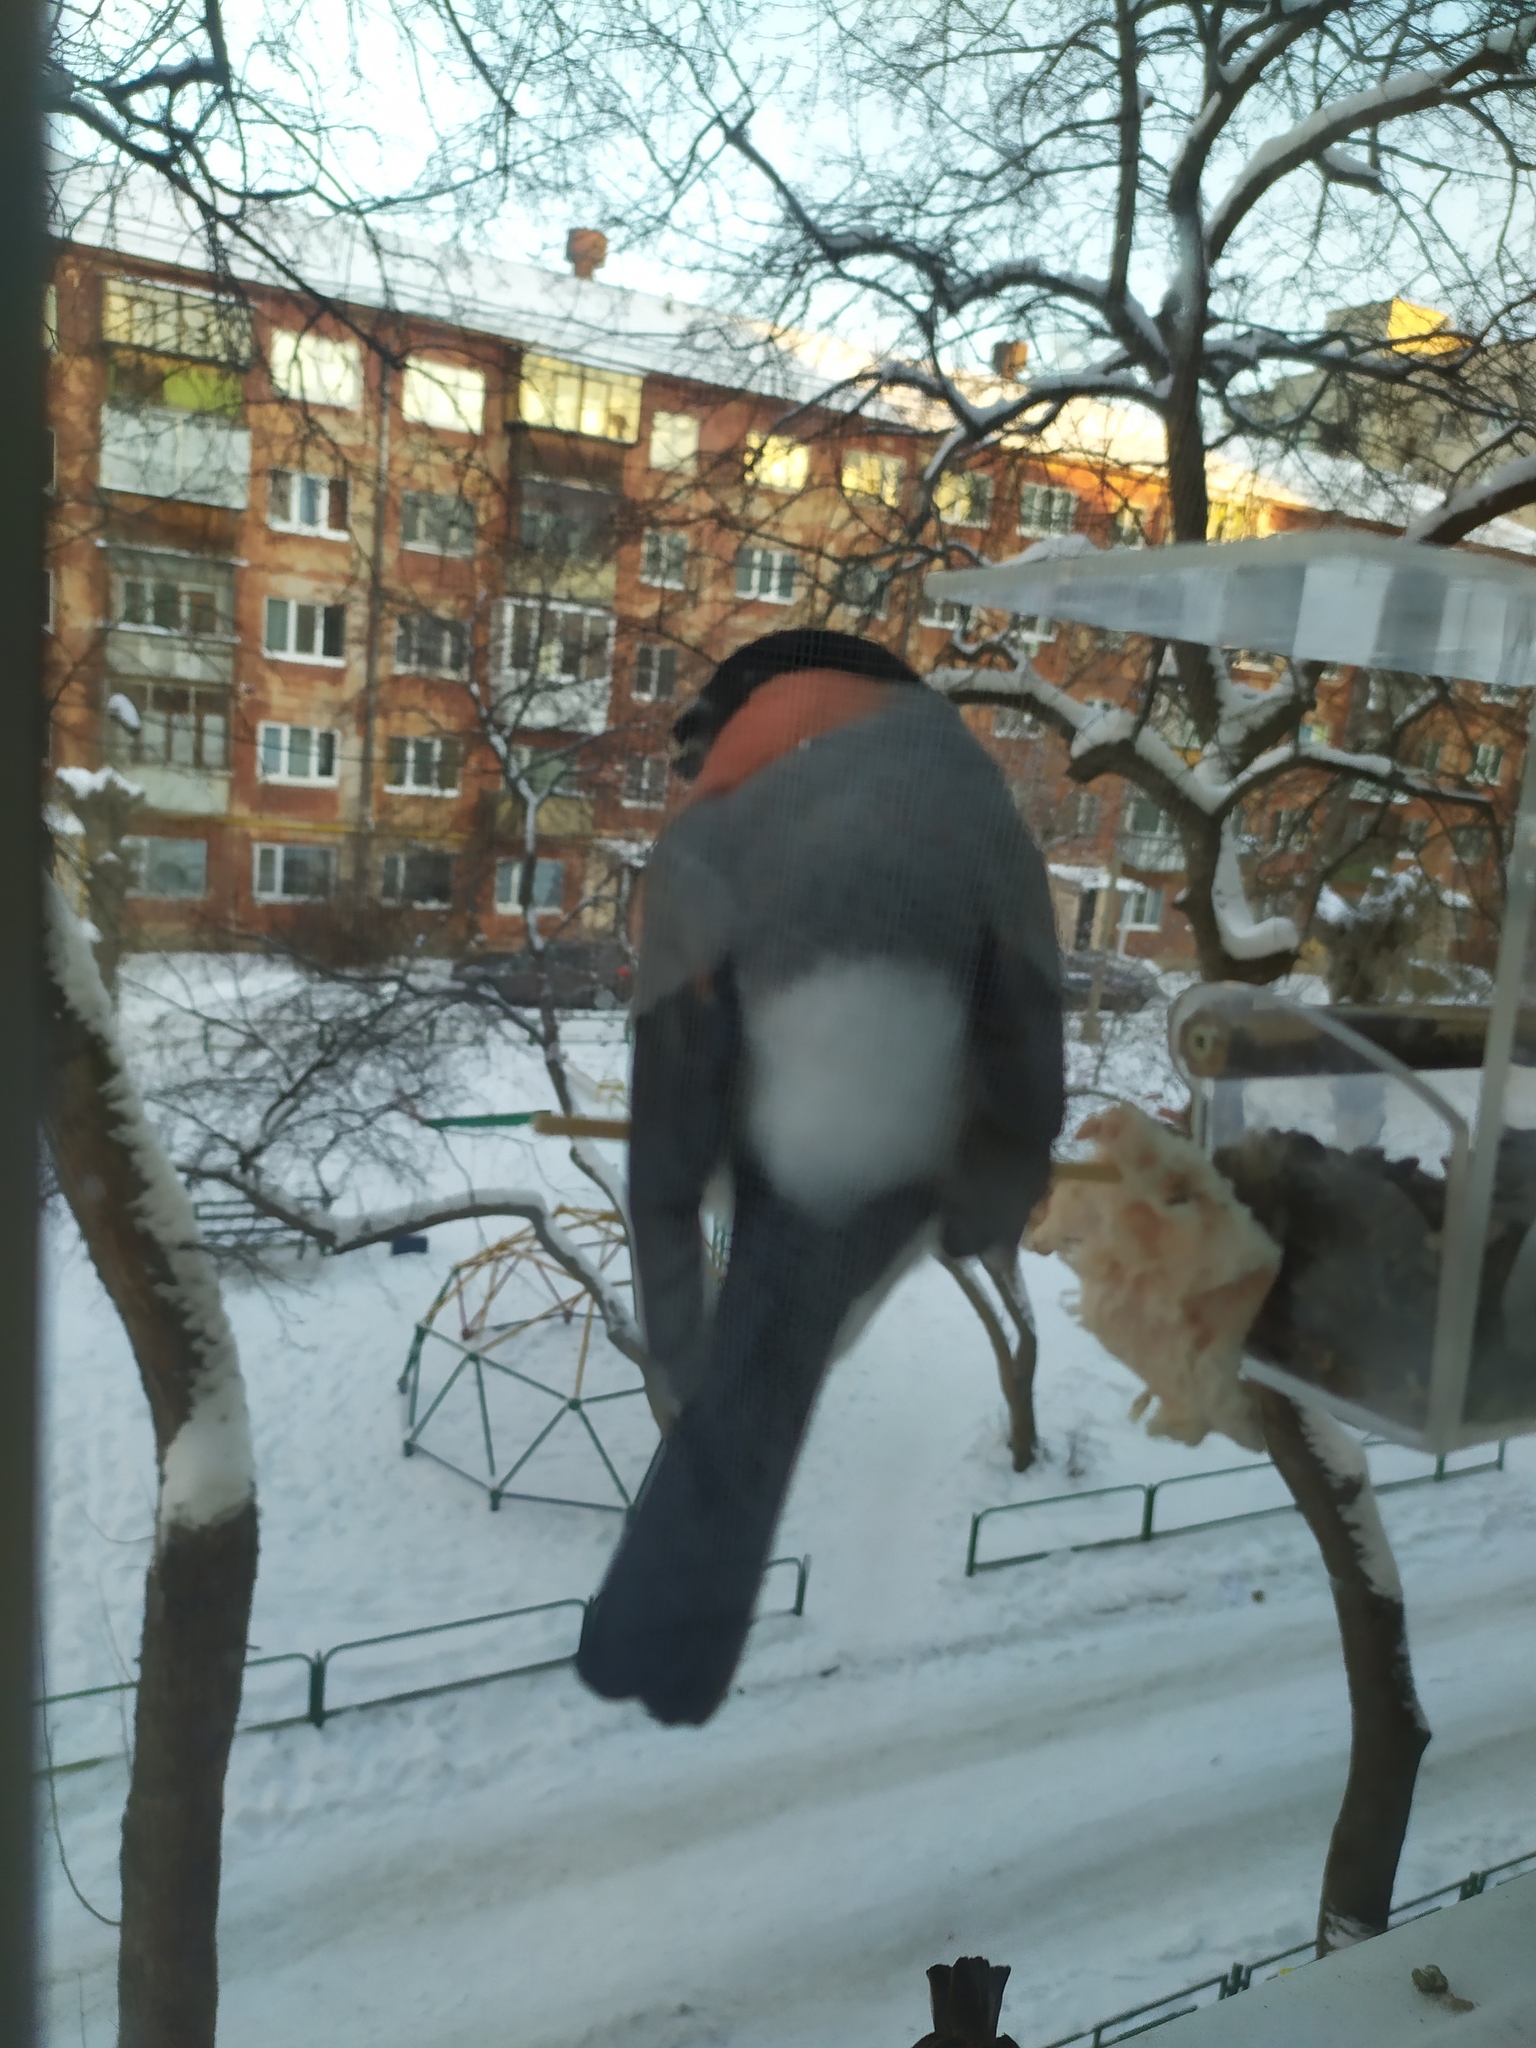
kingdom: Animalia
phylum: Chordata
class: Aves
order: Passeriformes
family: Fringillidae
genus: Pyrrhula
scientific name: Pyrrhula pyrrhula
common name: Eurasian bullfinch
